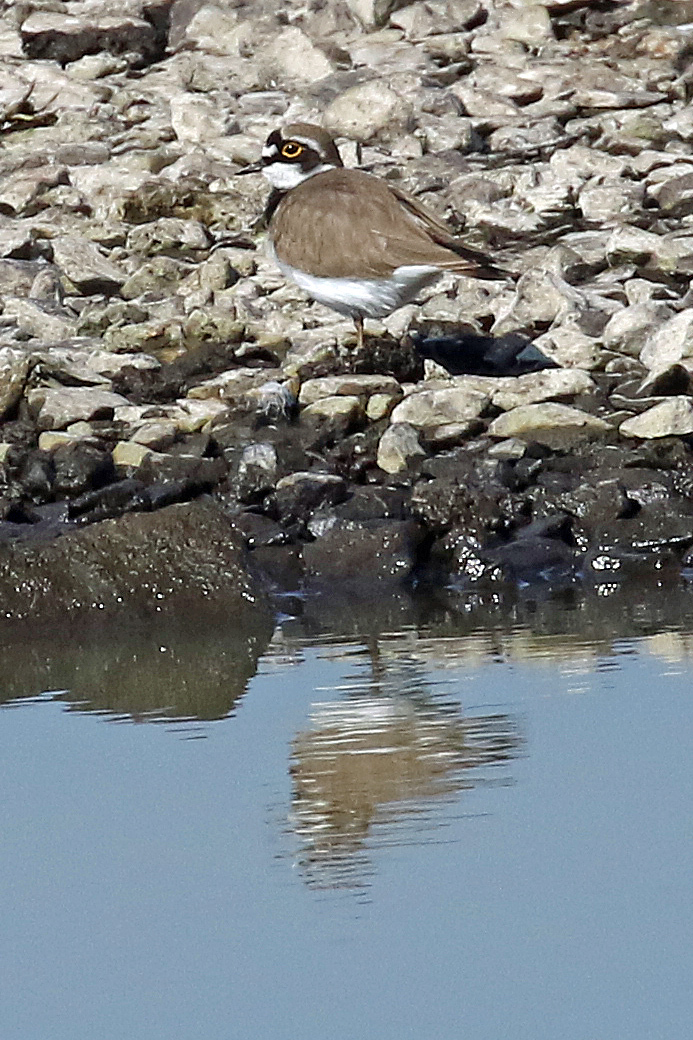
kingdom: Animalia
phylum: Chordata
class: Aves
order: Charadriiformes
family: Charadriidae
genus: Charadrius
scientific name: Charadrius dubius
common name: Little ringed plover
